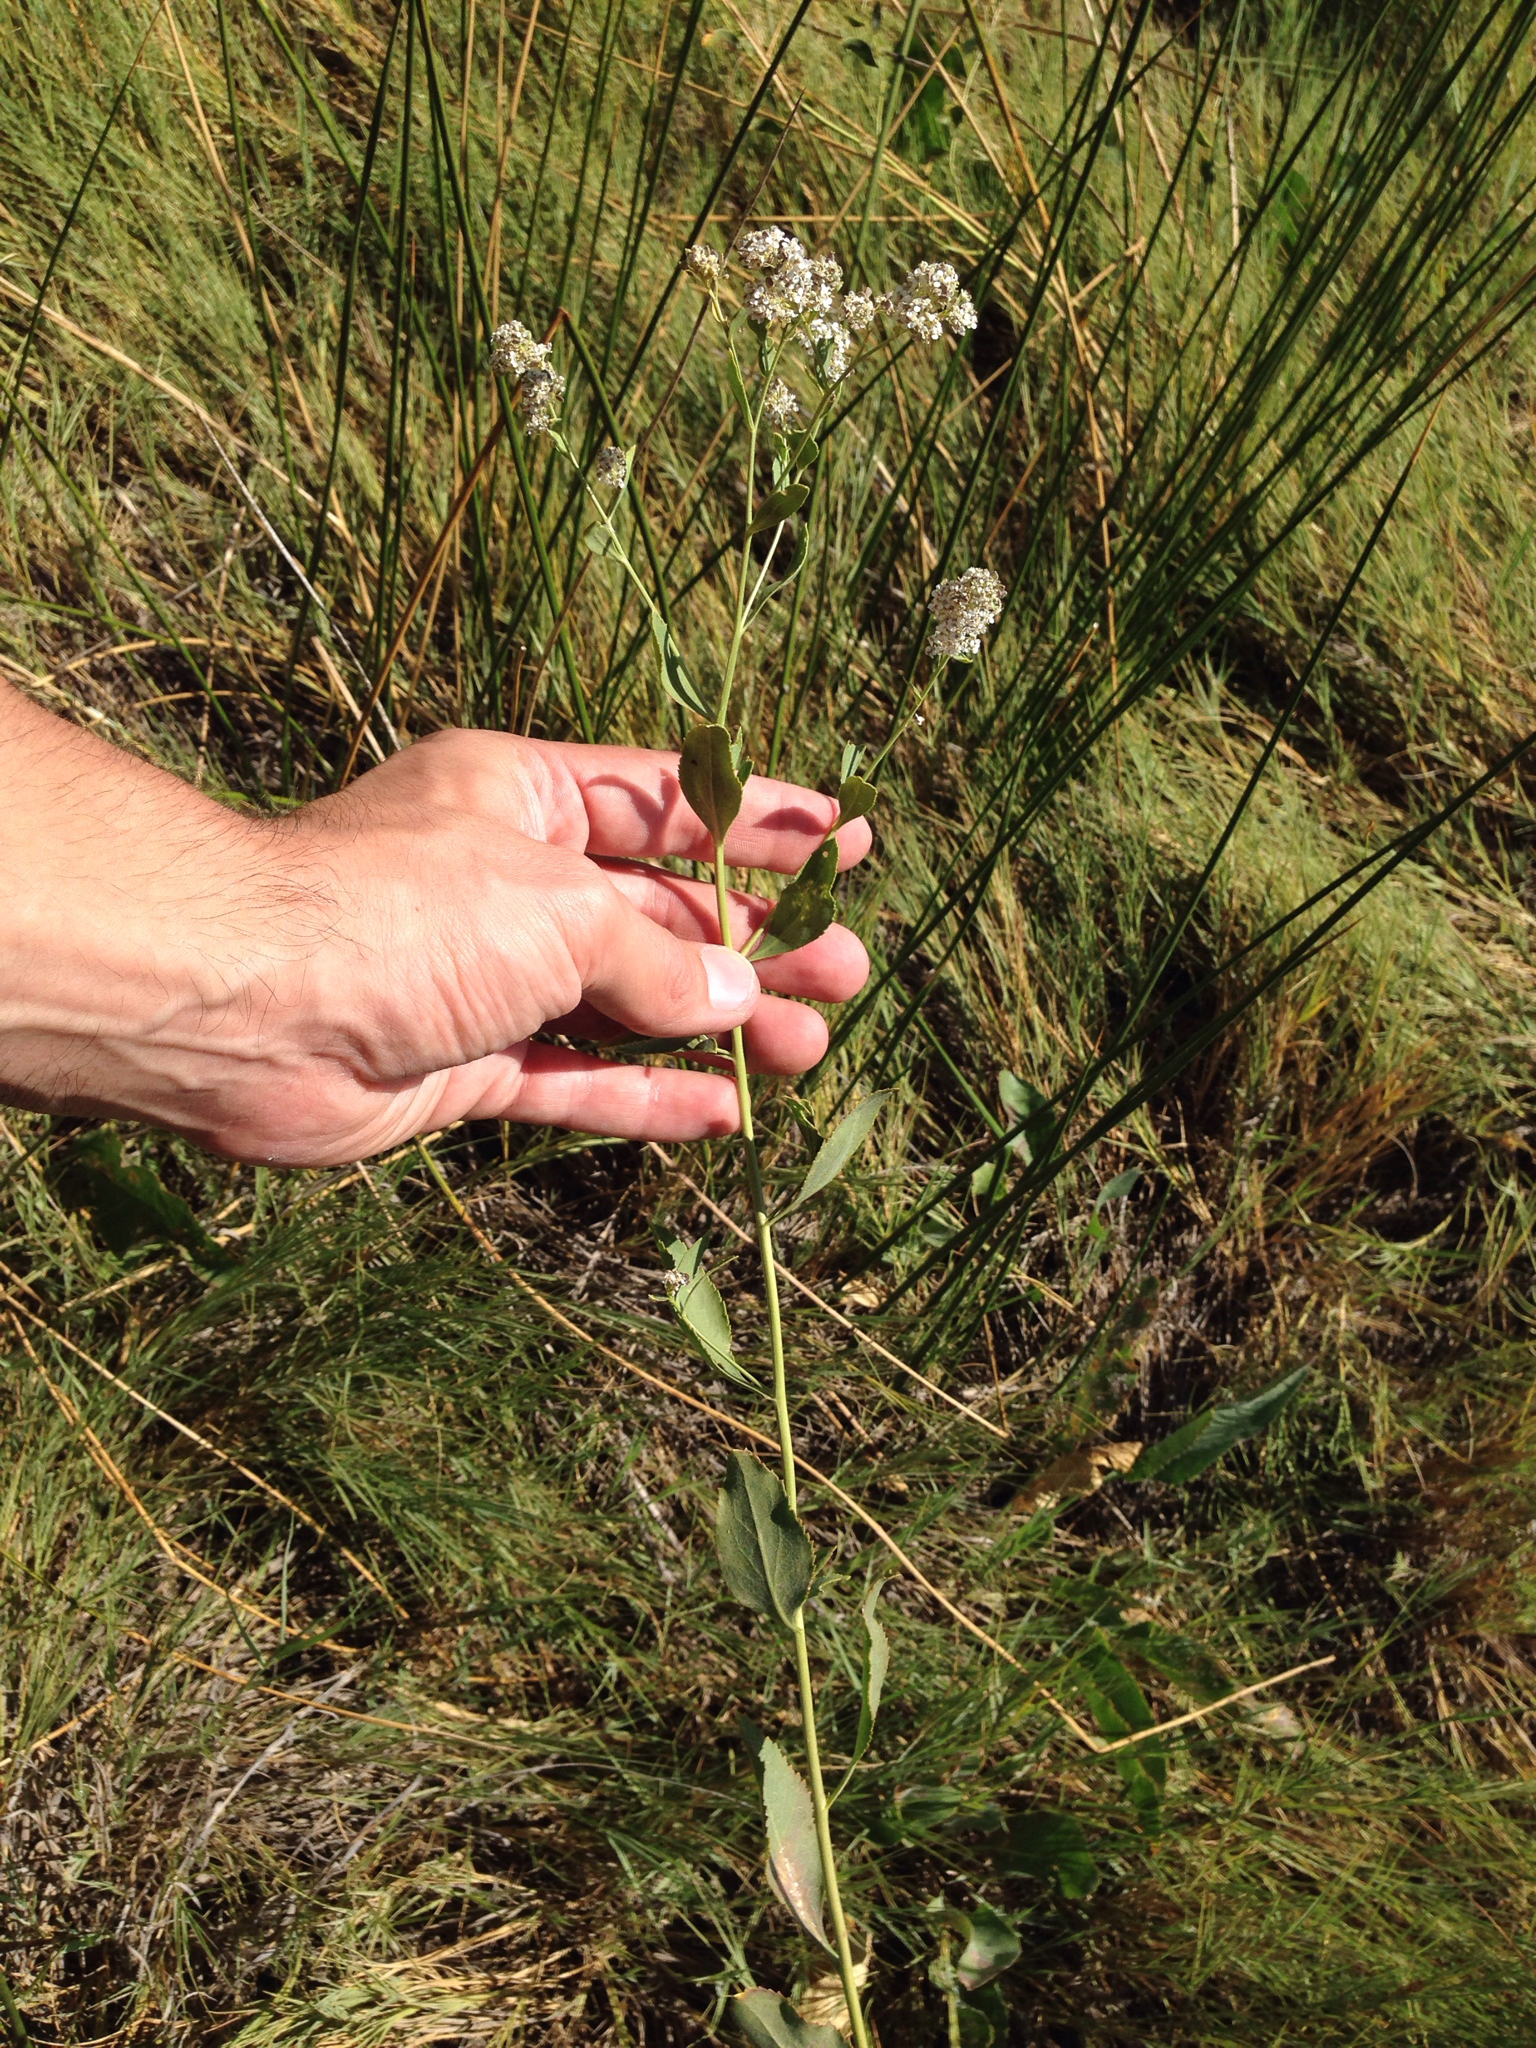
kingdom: Plantae
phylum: Tracheophyta
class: Magnoliopsida
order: Brassicales
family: Brassicaceae
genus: Lepidium
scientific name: Lepidium latifolium
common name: Dittander
